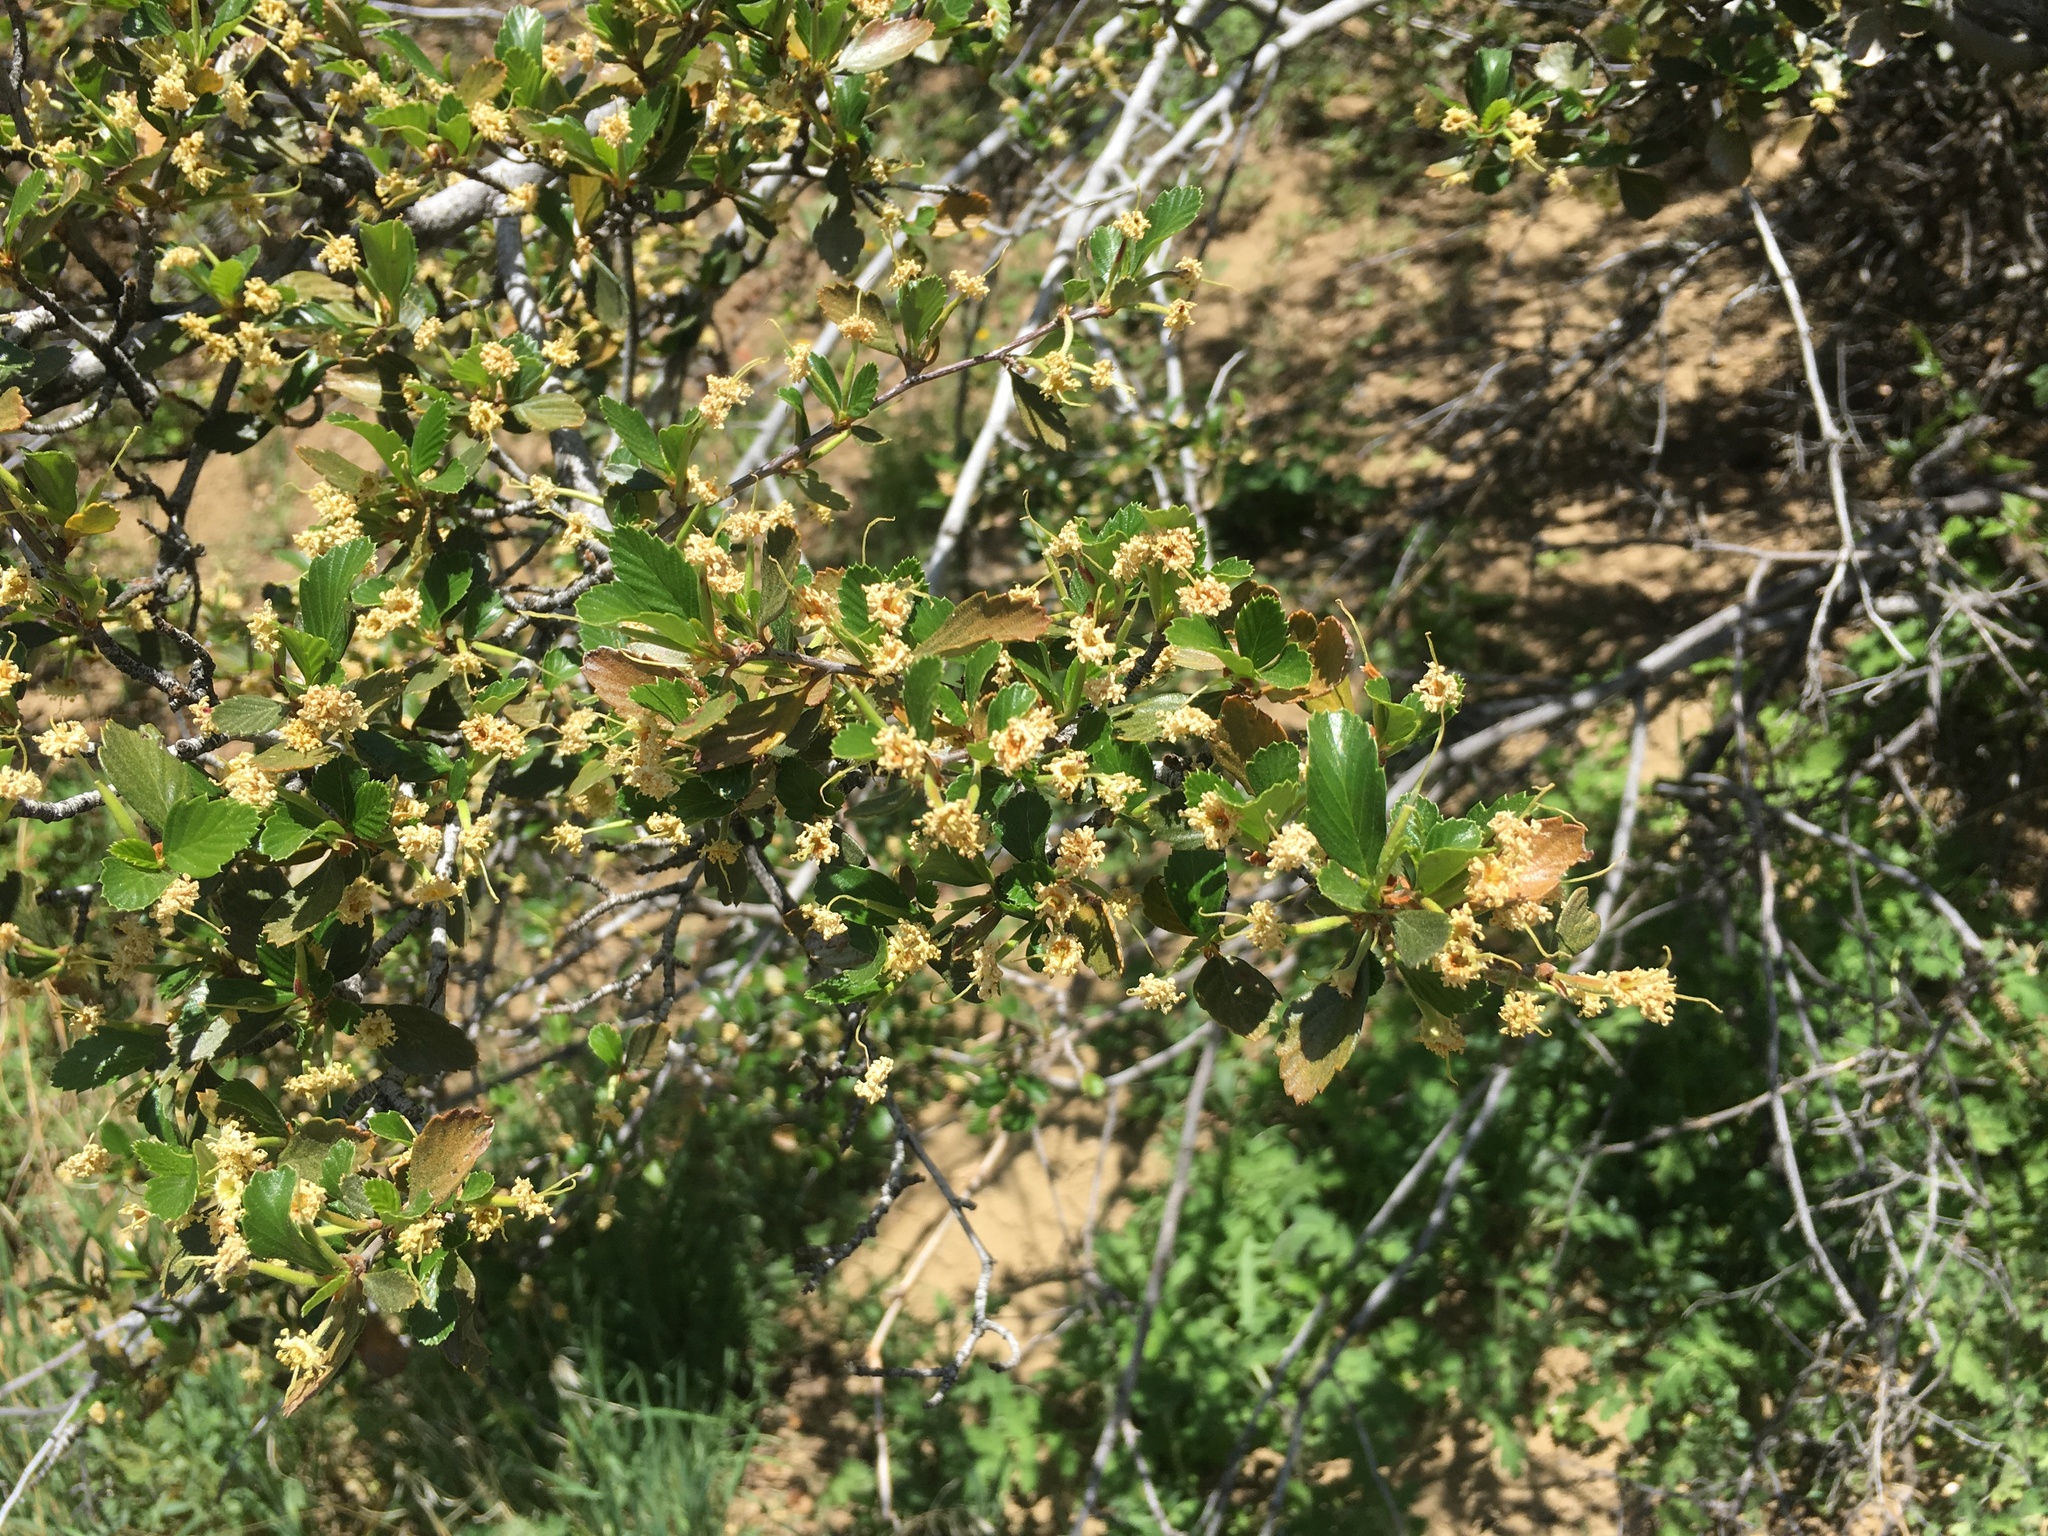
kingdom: Plantae
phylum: Tracheophyta
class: Magnoliopsida
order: Rosales
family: Rosaceae
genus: Cercocarpus
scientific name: Cercocarpus betuloides
